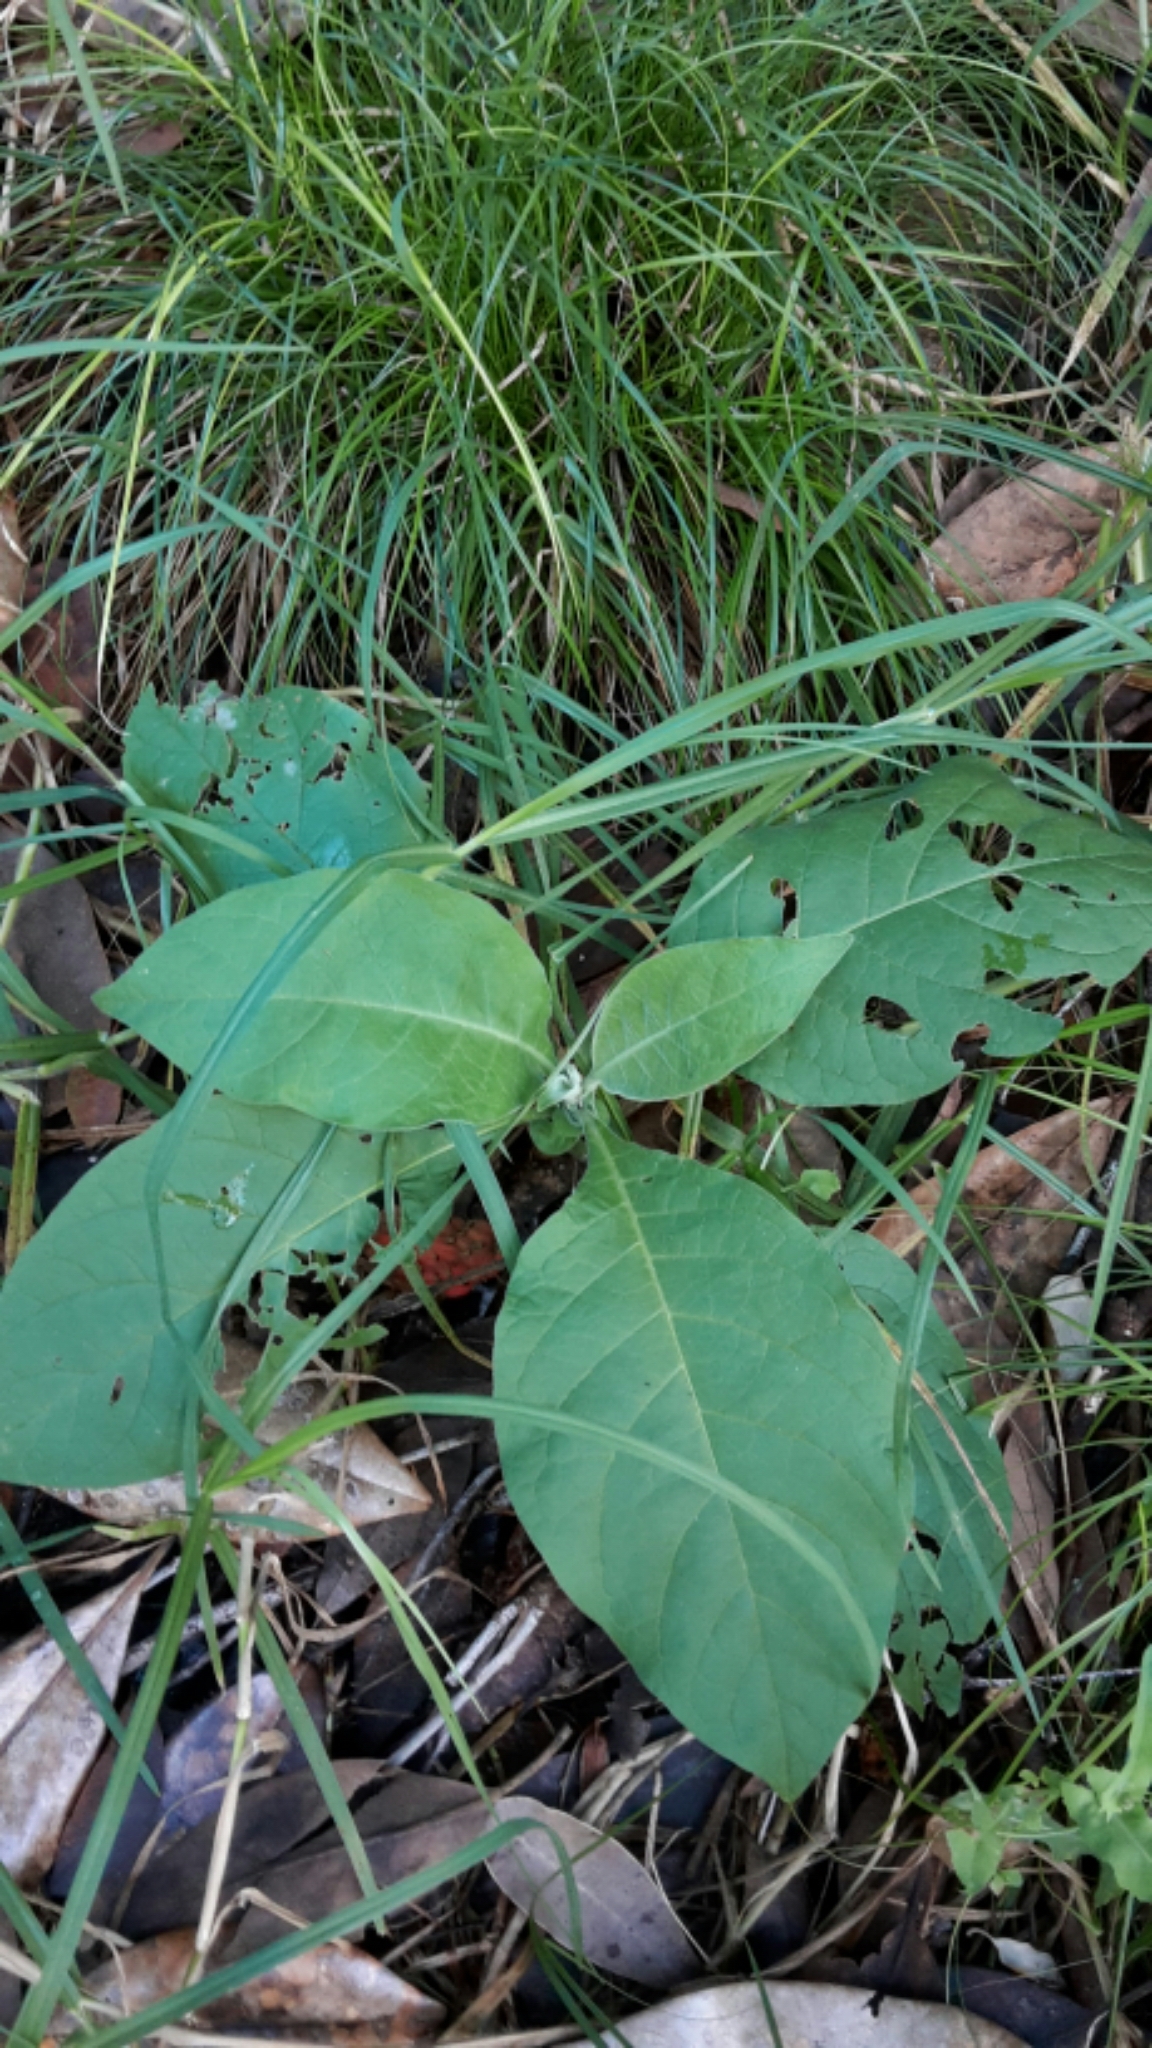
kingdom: Plantae
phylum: Tracheophyta
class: Magnoliopsida
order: Solanales
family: Solanaceae
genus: Solanum
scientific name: Solanum mauritianum
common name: Earleaf nightshade
